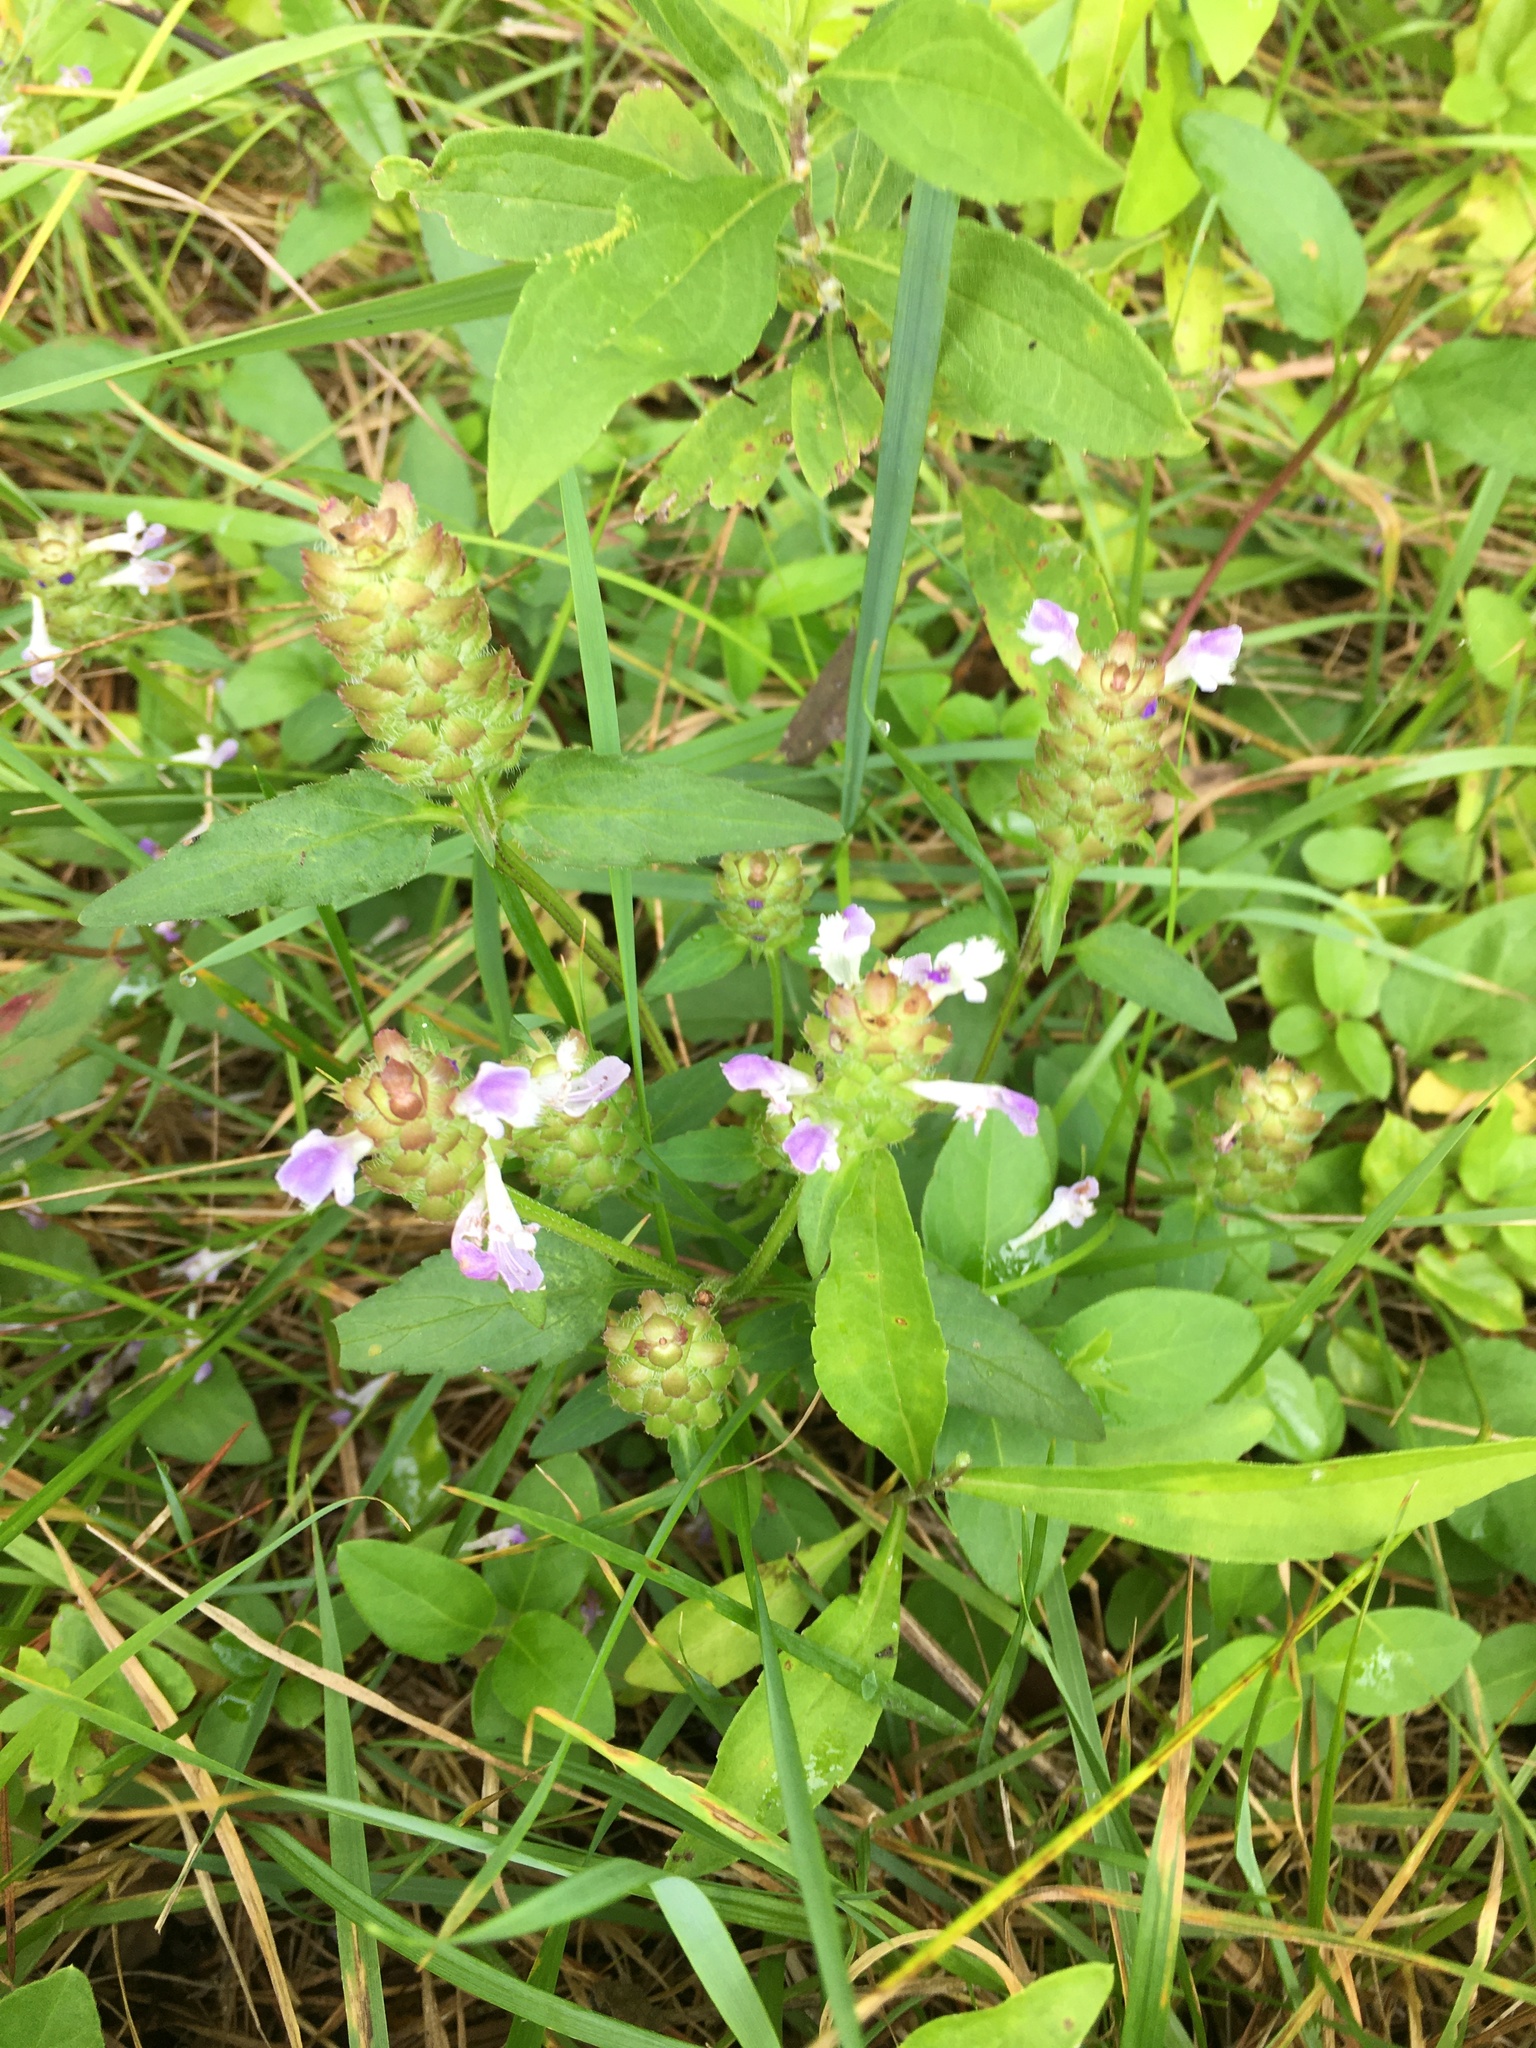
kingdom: Plantae
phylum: Tracheophyta
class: Magnoliopsida
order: Lamiales
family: Lamiaceae
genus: Prunella
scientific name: Prunella vulgaris
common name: Heal-all
